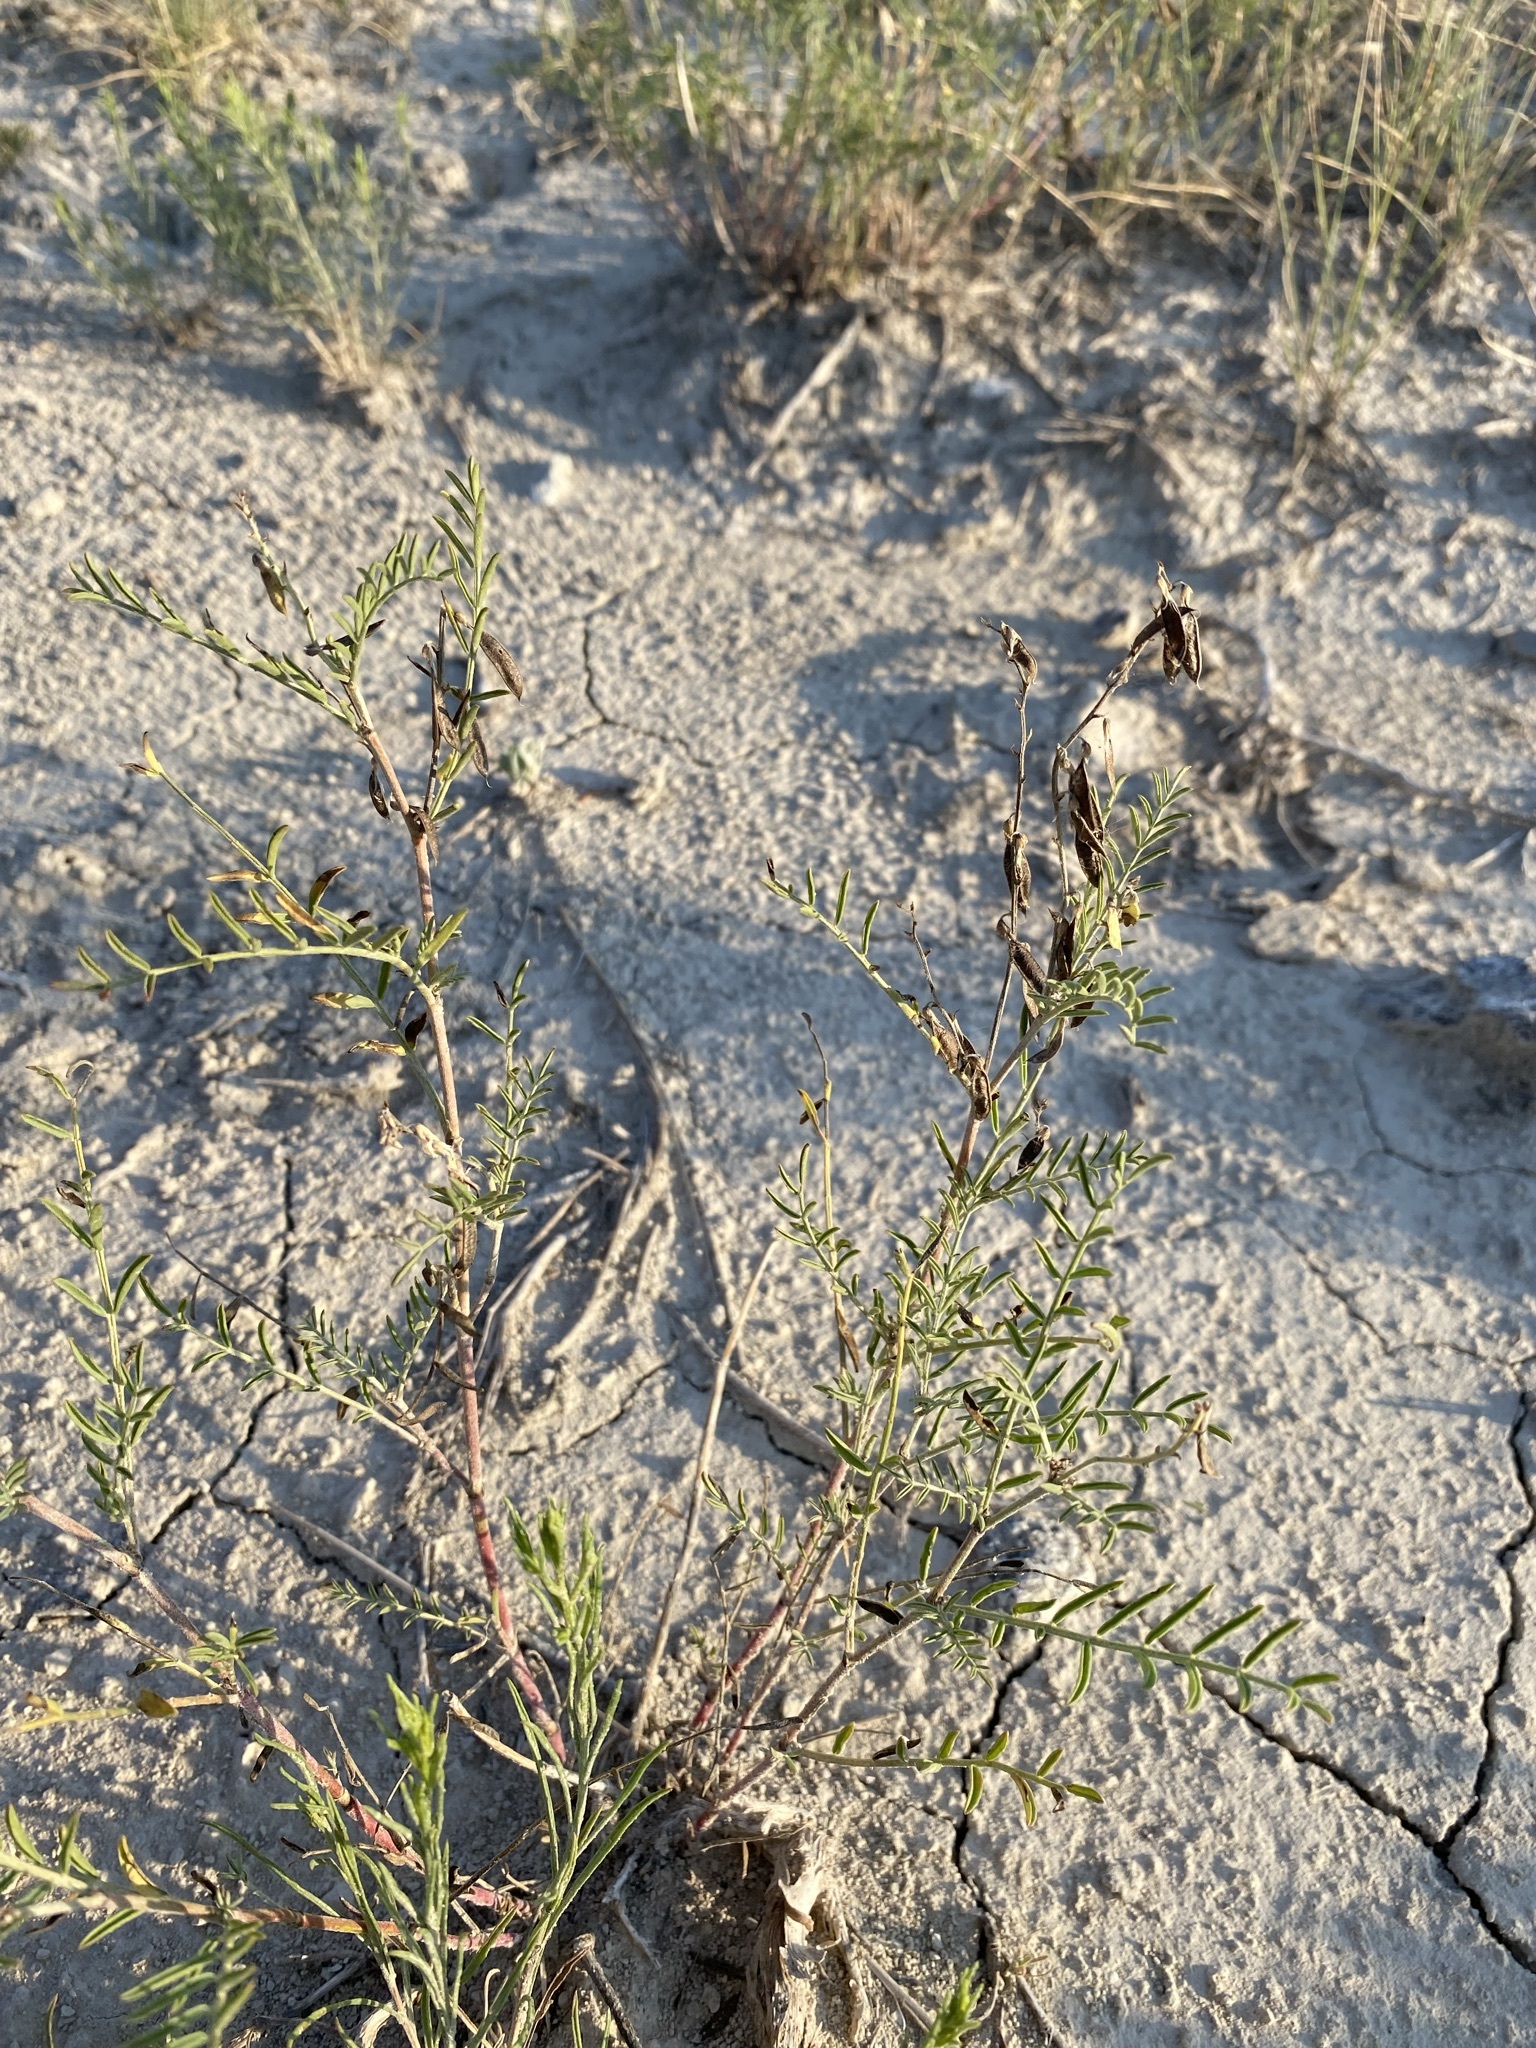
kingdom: Plantae
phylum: Tracheophyta
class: Magnoliopsida
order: Fabales
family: Fabaceae
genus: Astragalus
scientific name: Astragalus tenellus
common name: Pulse milk-vetch
